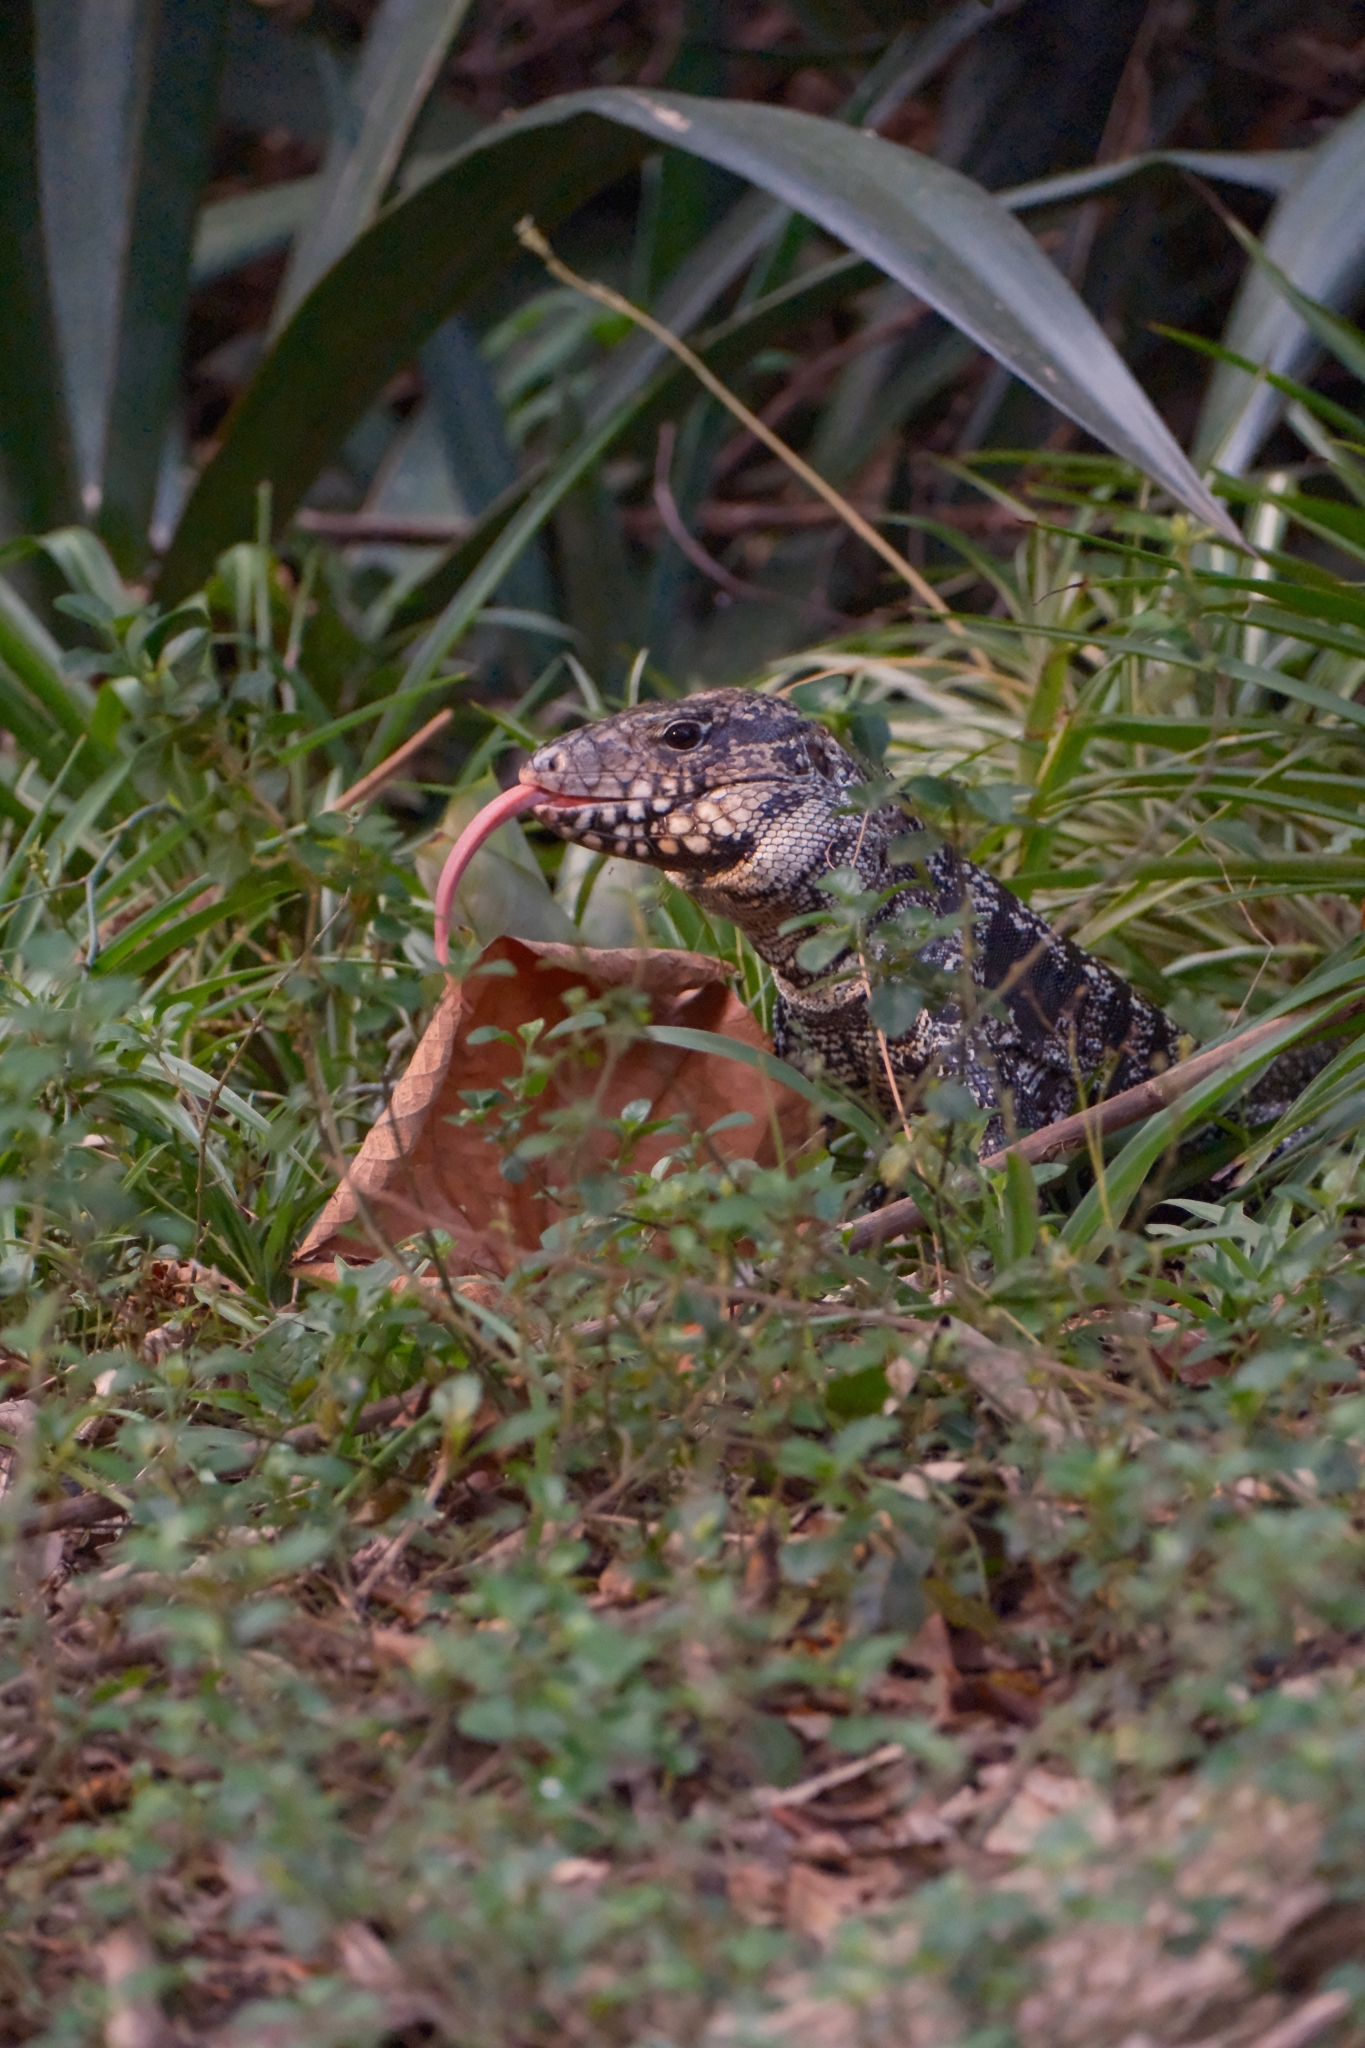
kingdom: Animalia
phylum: Chordata
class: Squamata
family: Teiidae
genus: Salvator
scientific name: Salvator merianae
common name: Argentine black and white tegu
